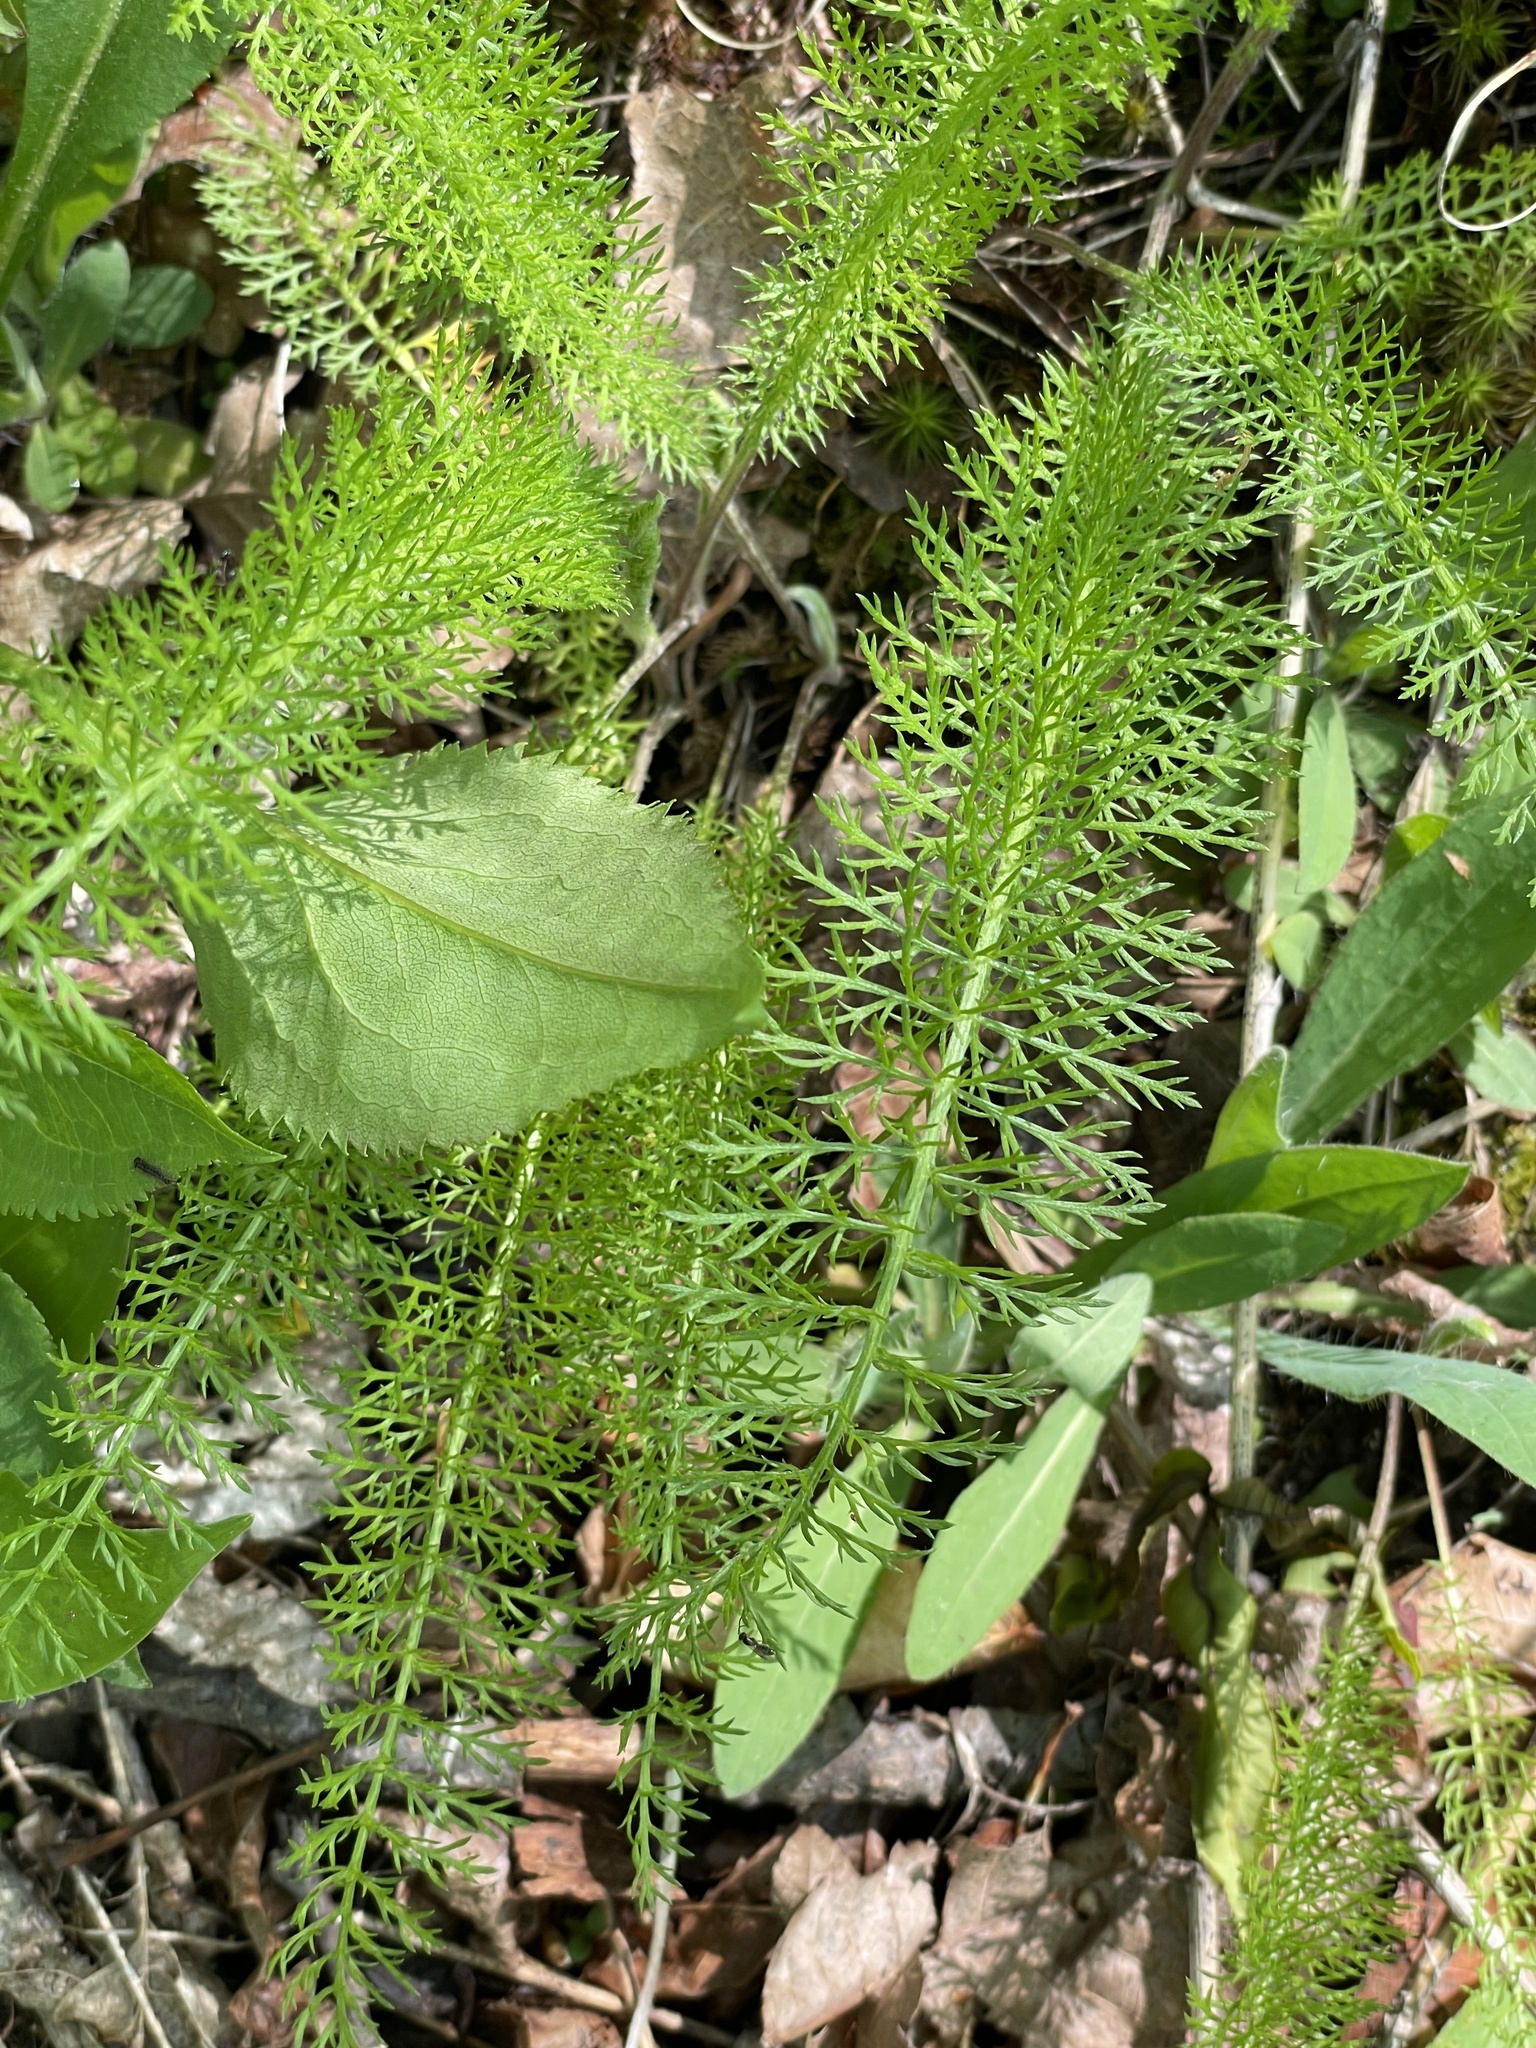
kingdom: Plantae
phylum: Tracheophyta
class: Magnoliopsida
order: Asterales
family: Asteraceae
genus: Achillea
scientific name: Achillea millefolium
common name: Yarrow
